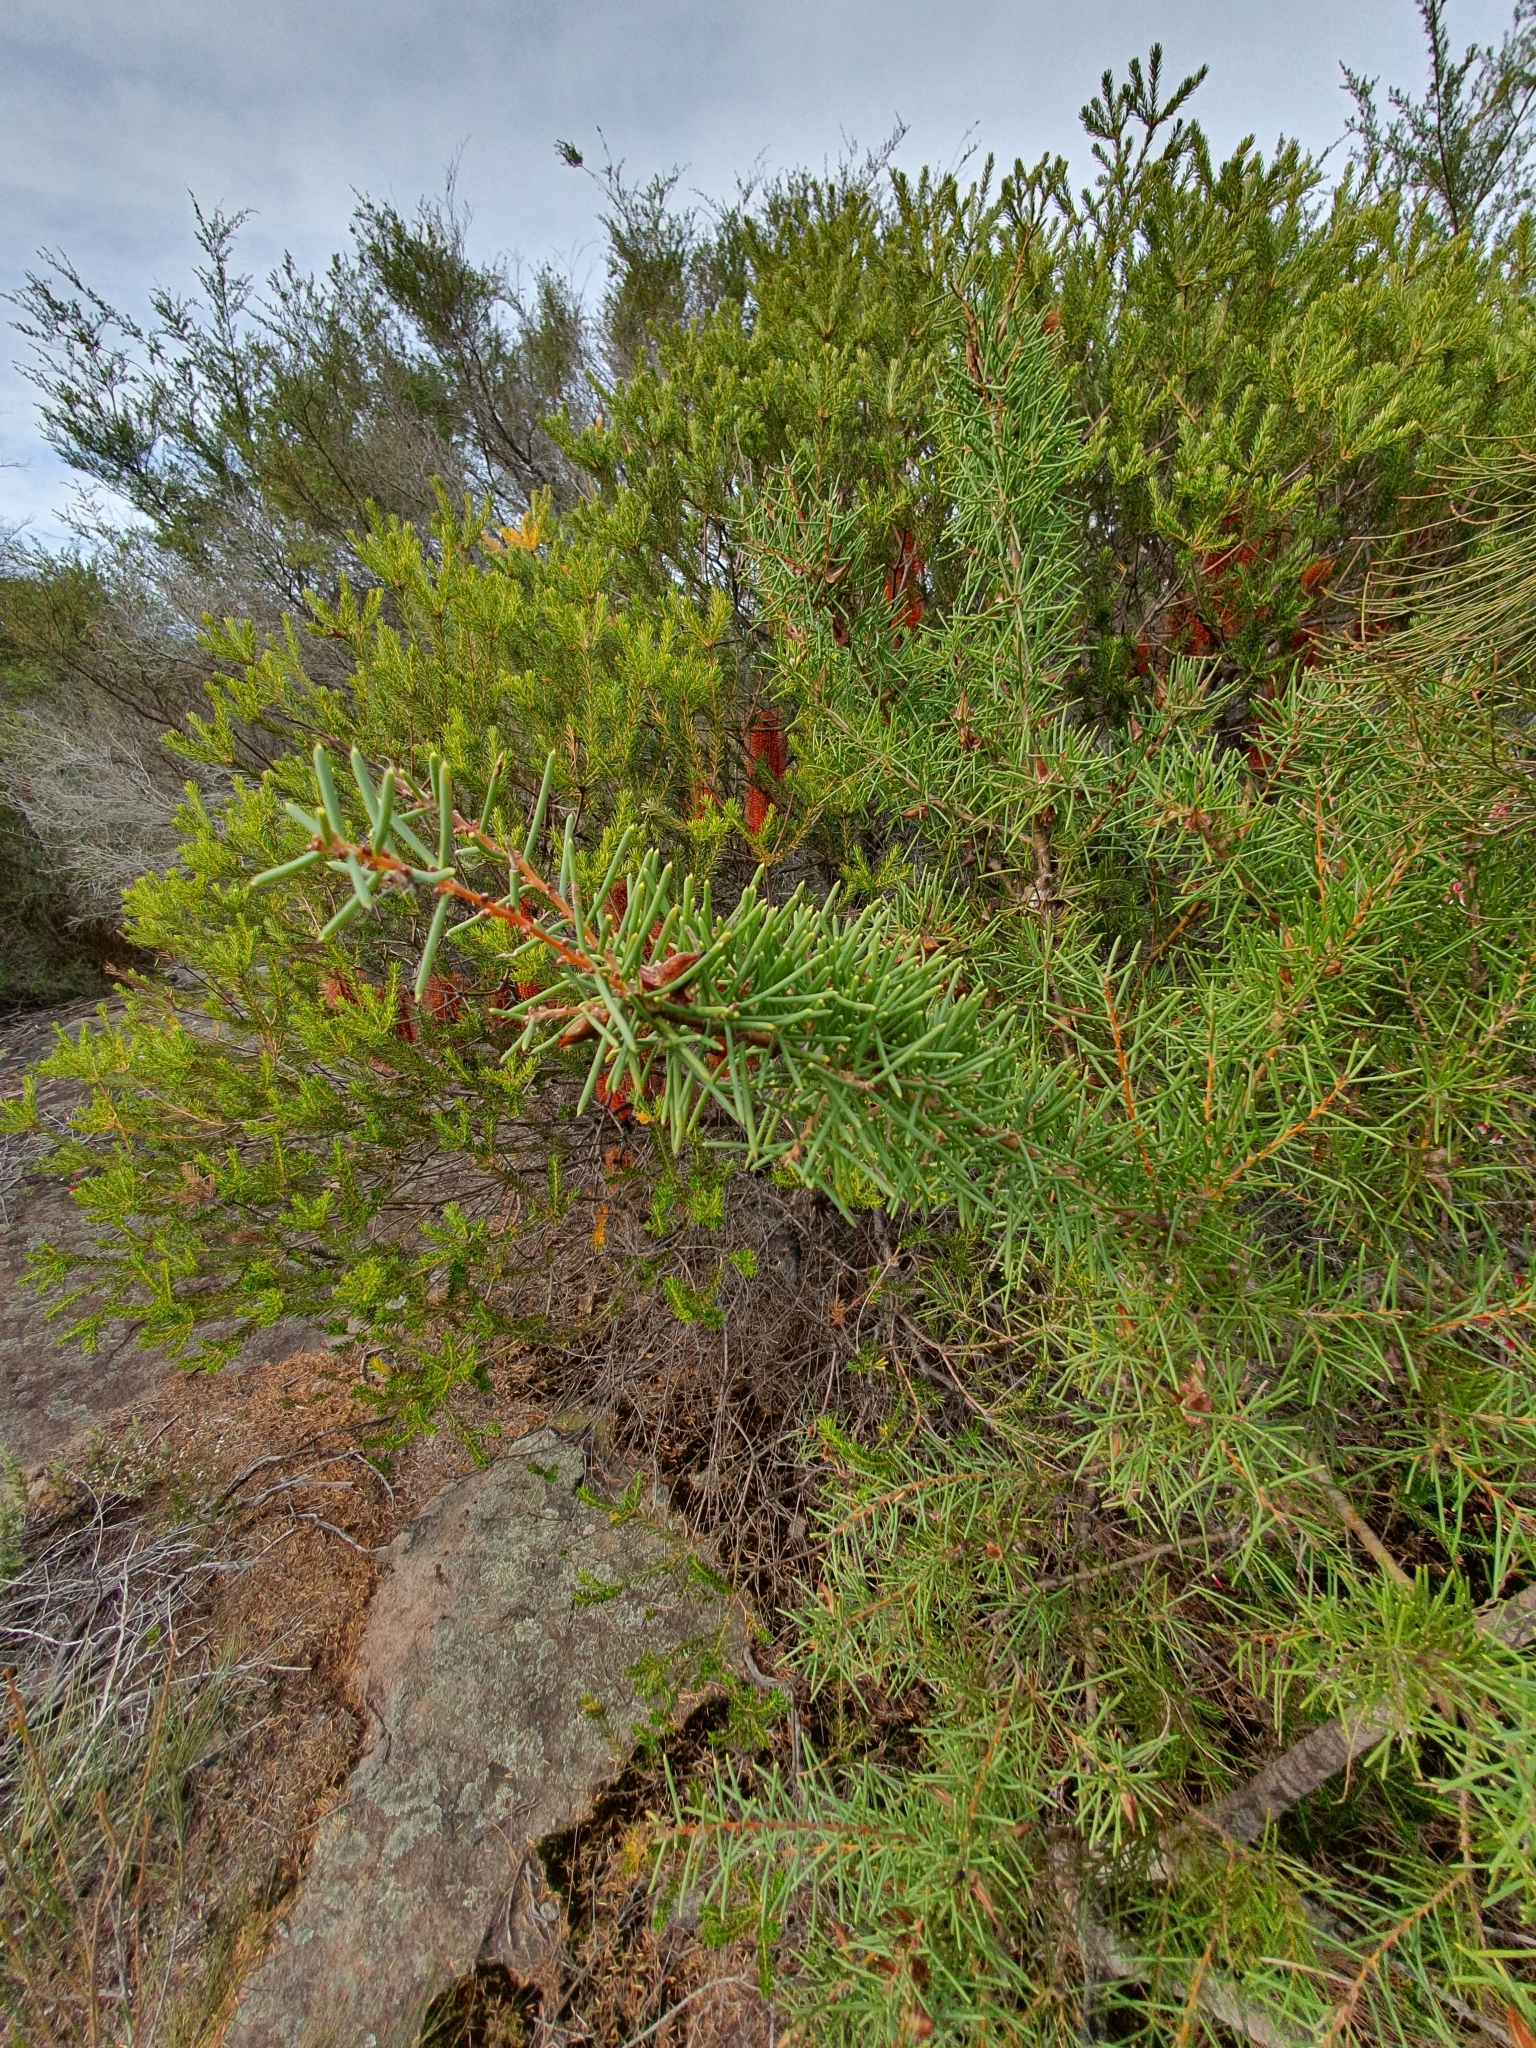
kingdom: Plantae
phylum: Tracheophyta
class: Magnoliopsida
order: Proteales
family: Proteaceae
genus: Hakea
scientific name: Hakea teretifolia
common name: Dagger hakea
